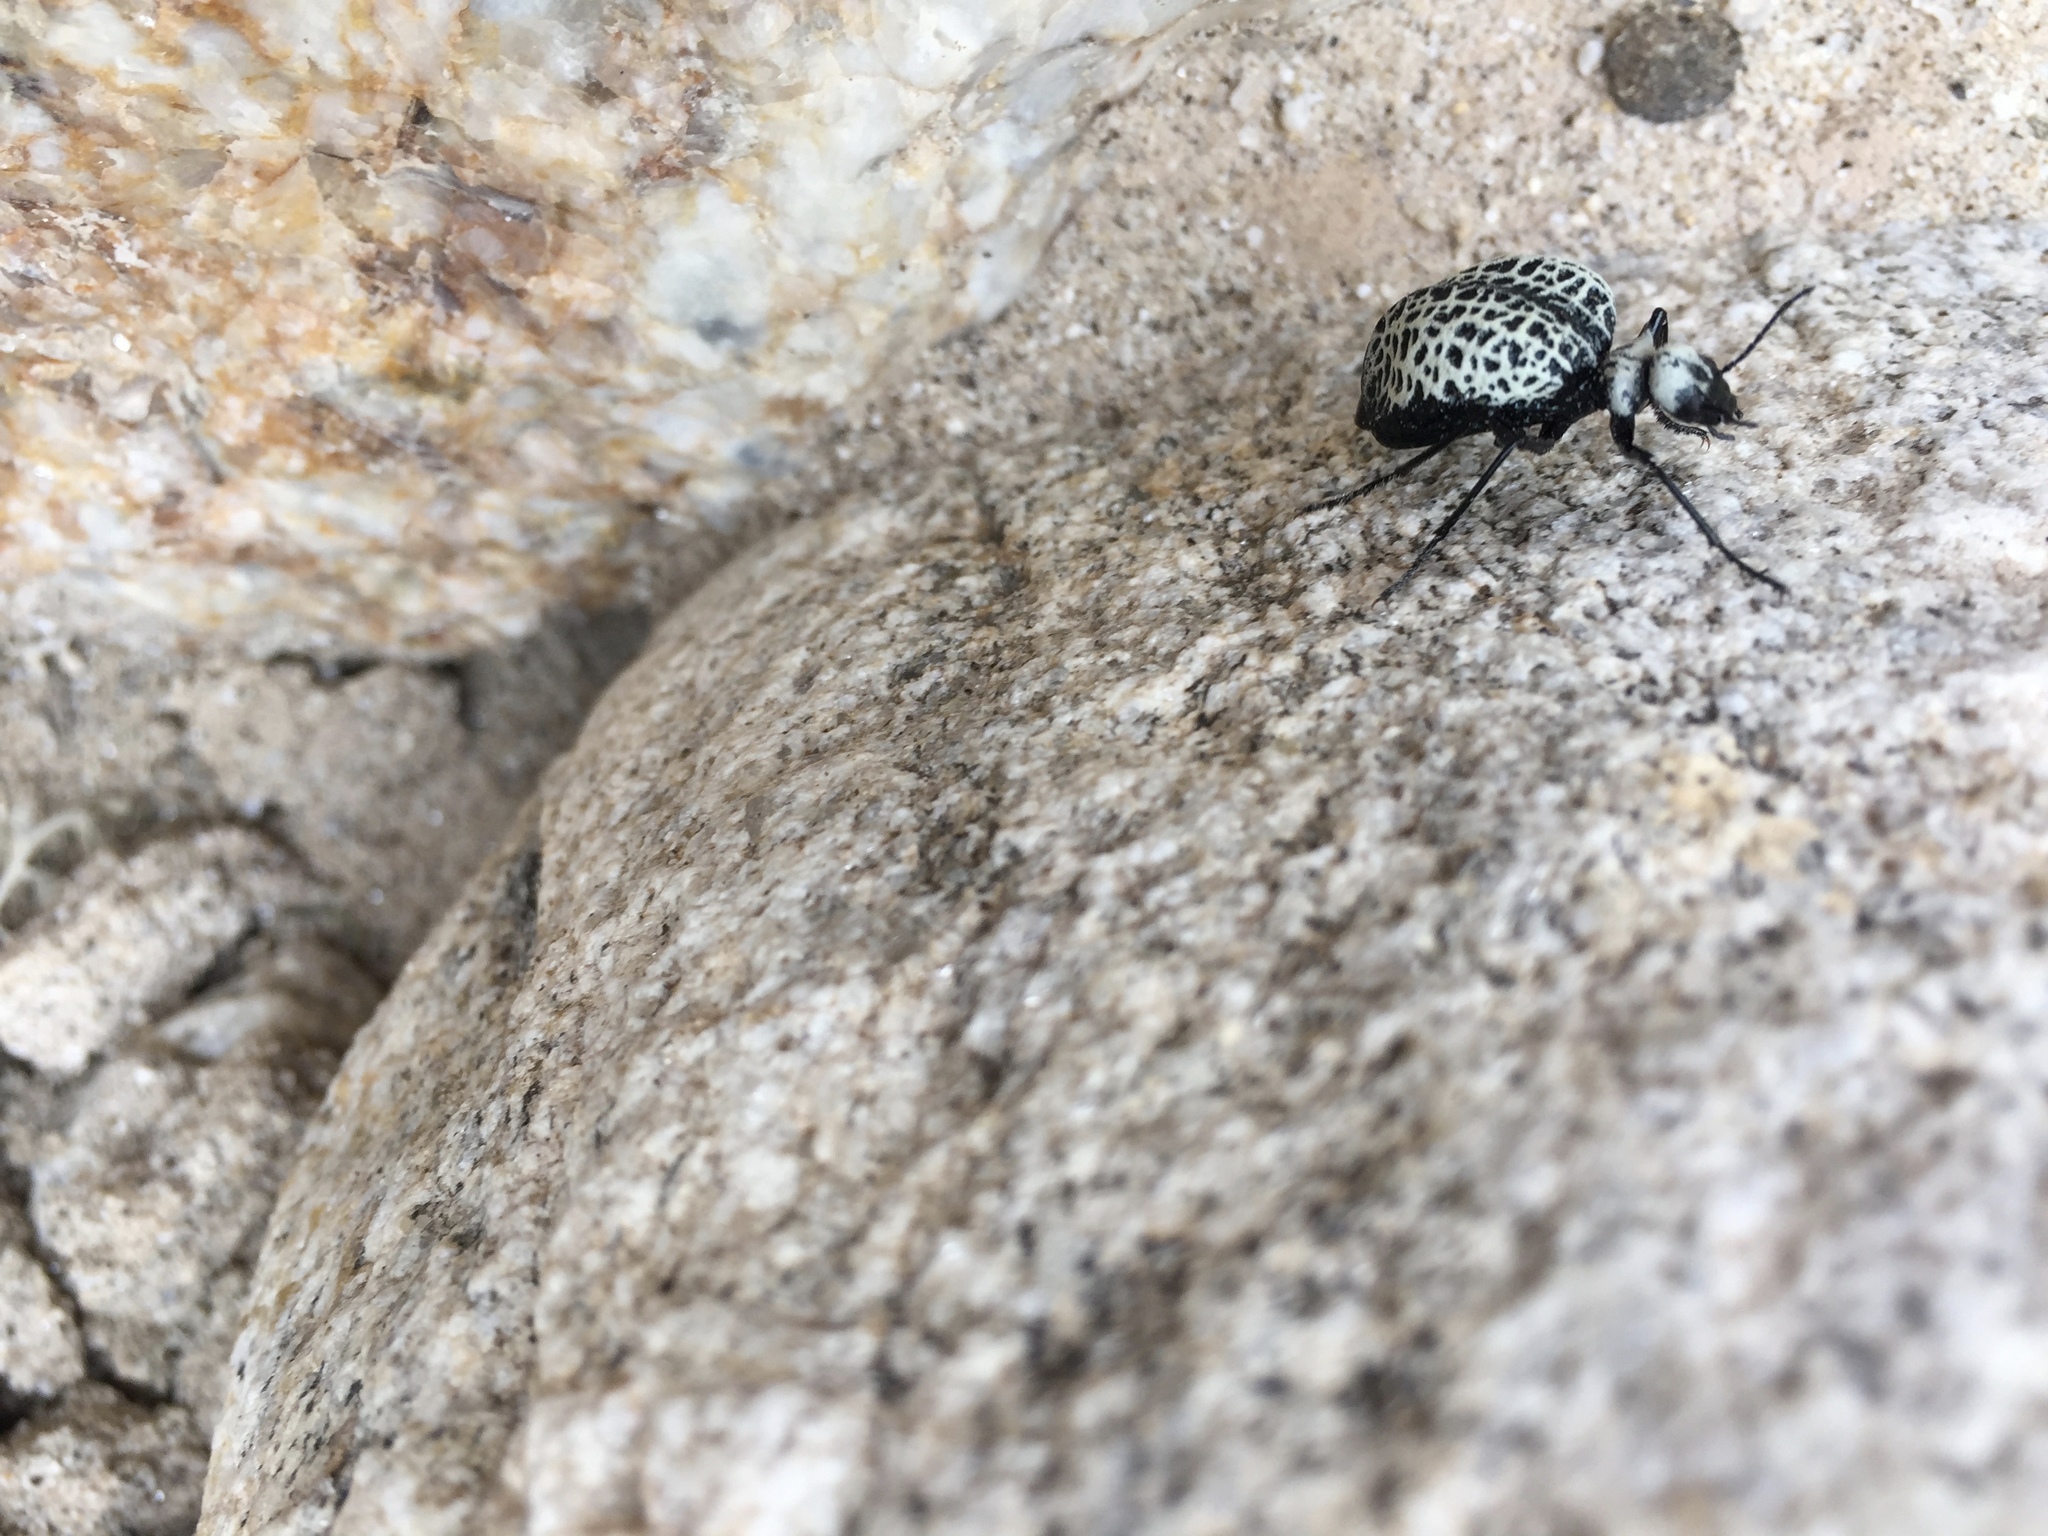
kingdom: Animalia
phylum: Arthropoda
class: Insecta
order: Coleoptera
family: Meloidae
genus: Cysteodemus
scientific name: Cysteodemus armatus
